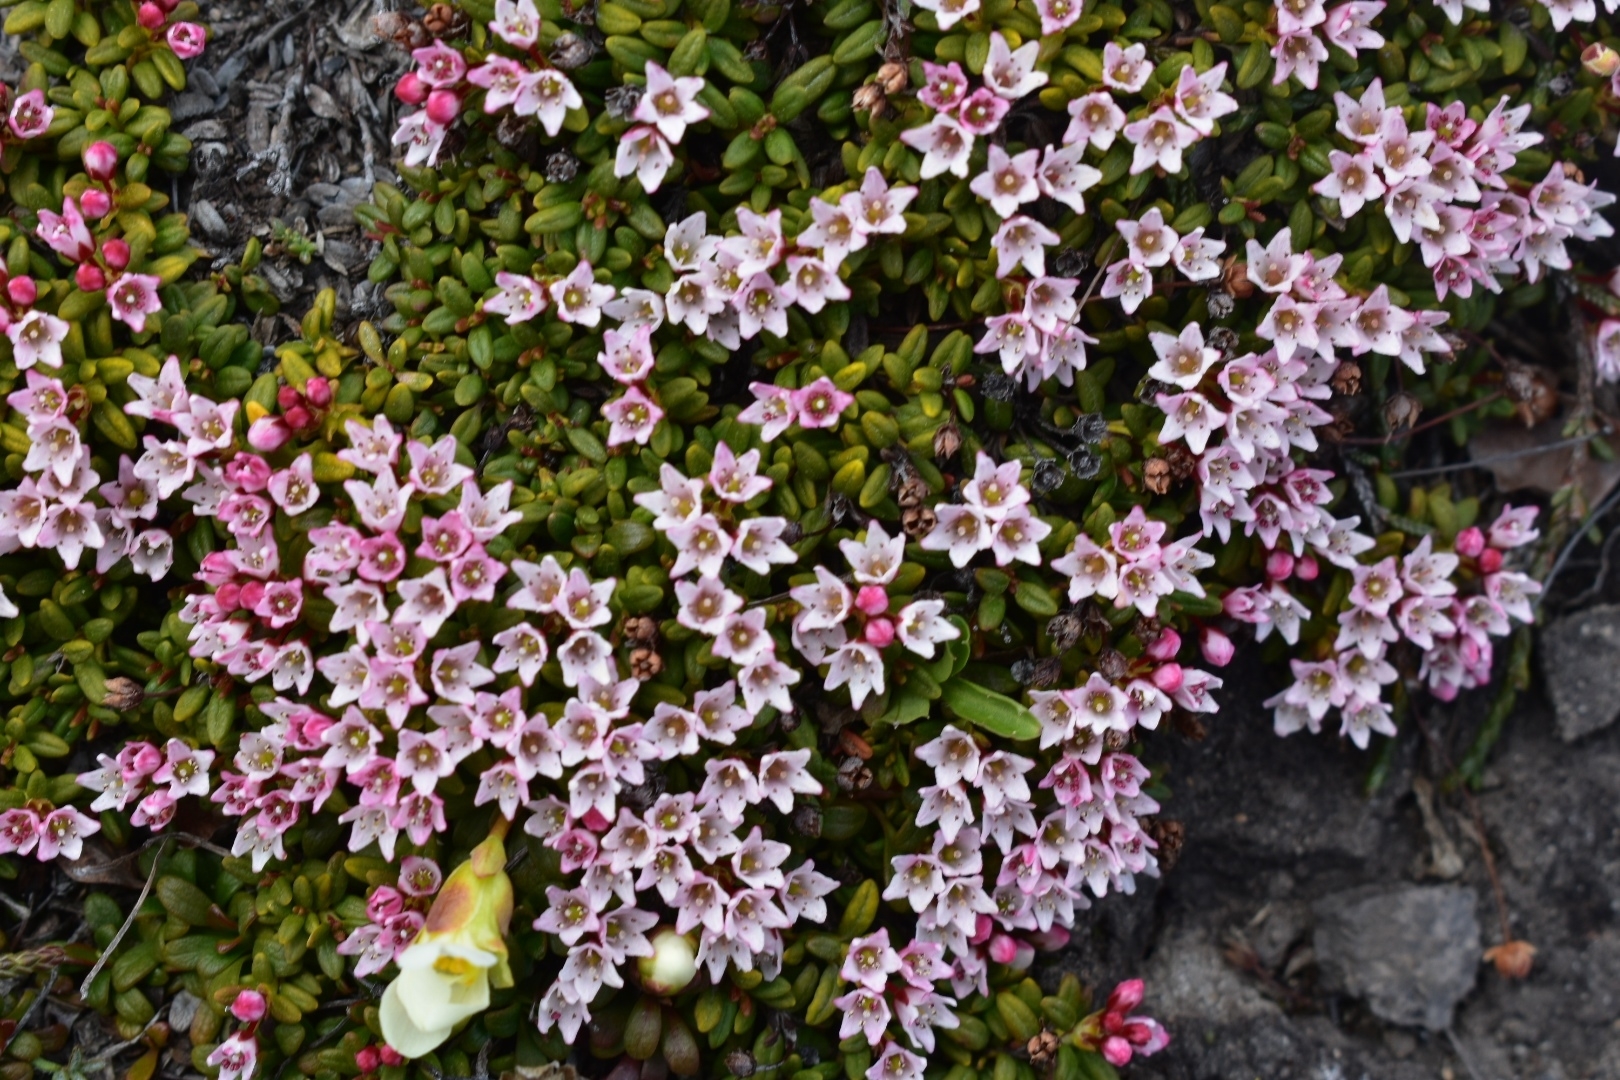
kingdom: Plantae
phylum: Tracheophyta
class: Magnoliopsida
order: Ericales
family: Ericaceae
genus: Kalmia
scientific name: Kalmia procumbens
